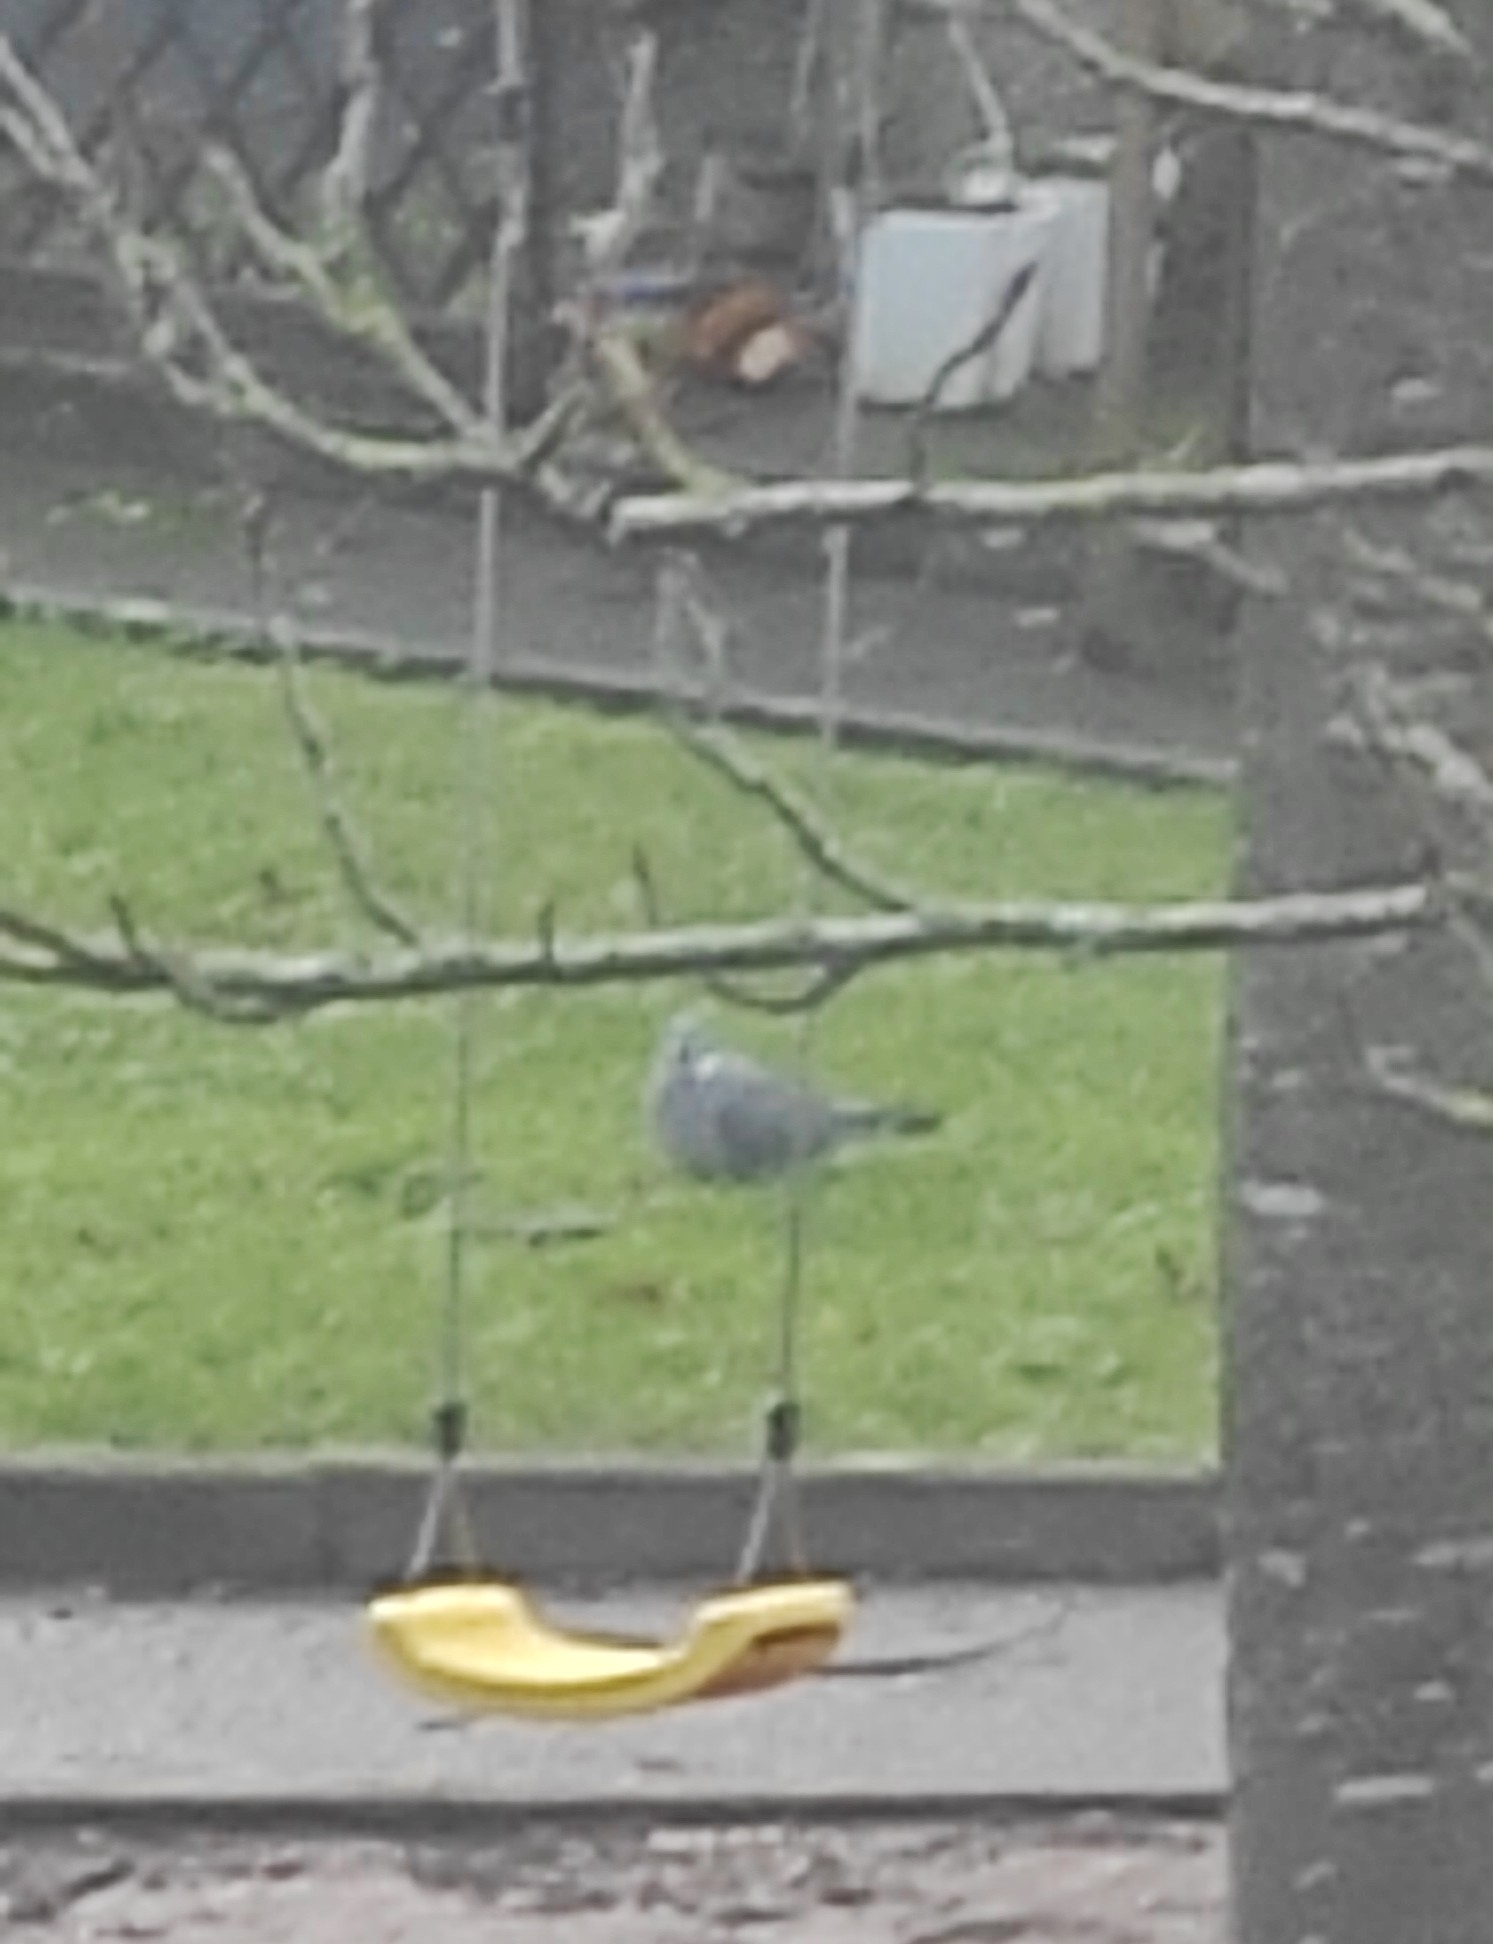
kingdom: Animalia
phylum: Chordata
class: Aves
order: Columbiformes
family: Columbidae
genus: Columba
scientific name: Columba palumbus
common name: Common wood pigeon
